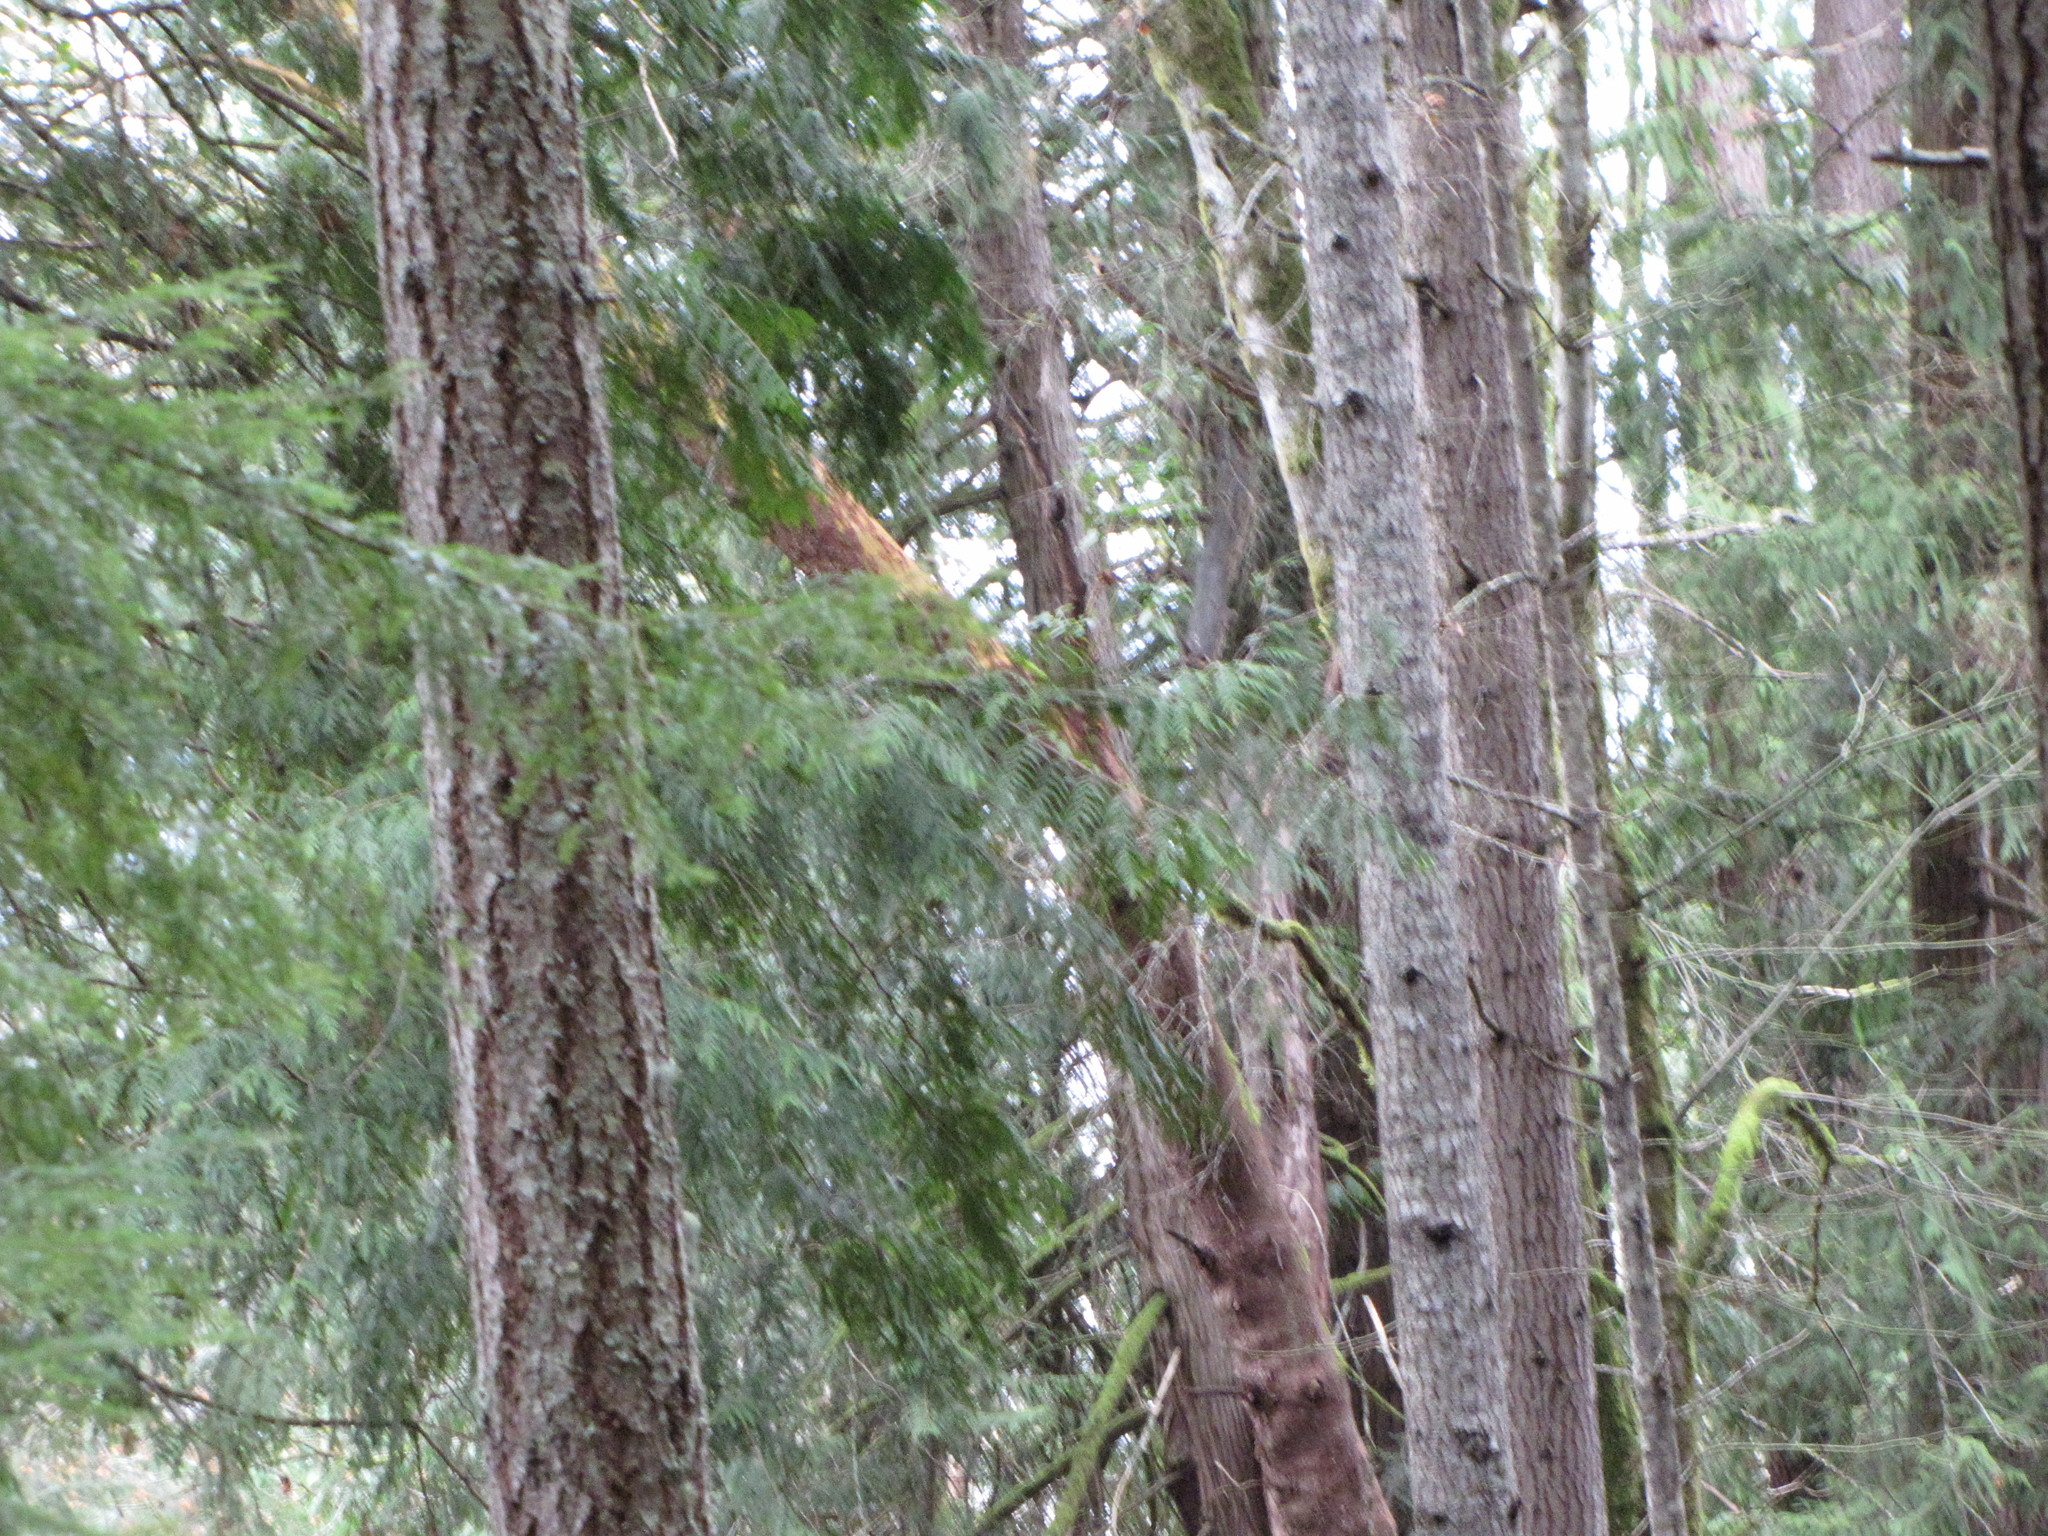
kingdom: Plantae
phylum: Tracheophyta
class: Pinopsida
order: Pinales
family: Pinaceae
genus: Pseudotsuga
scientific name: Pseudotsuga menziesii
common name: Douglas fir
